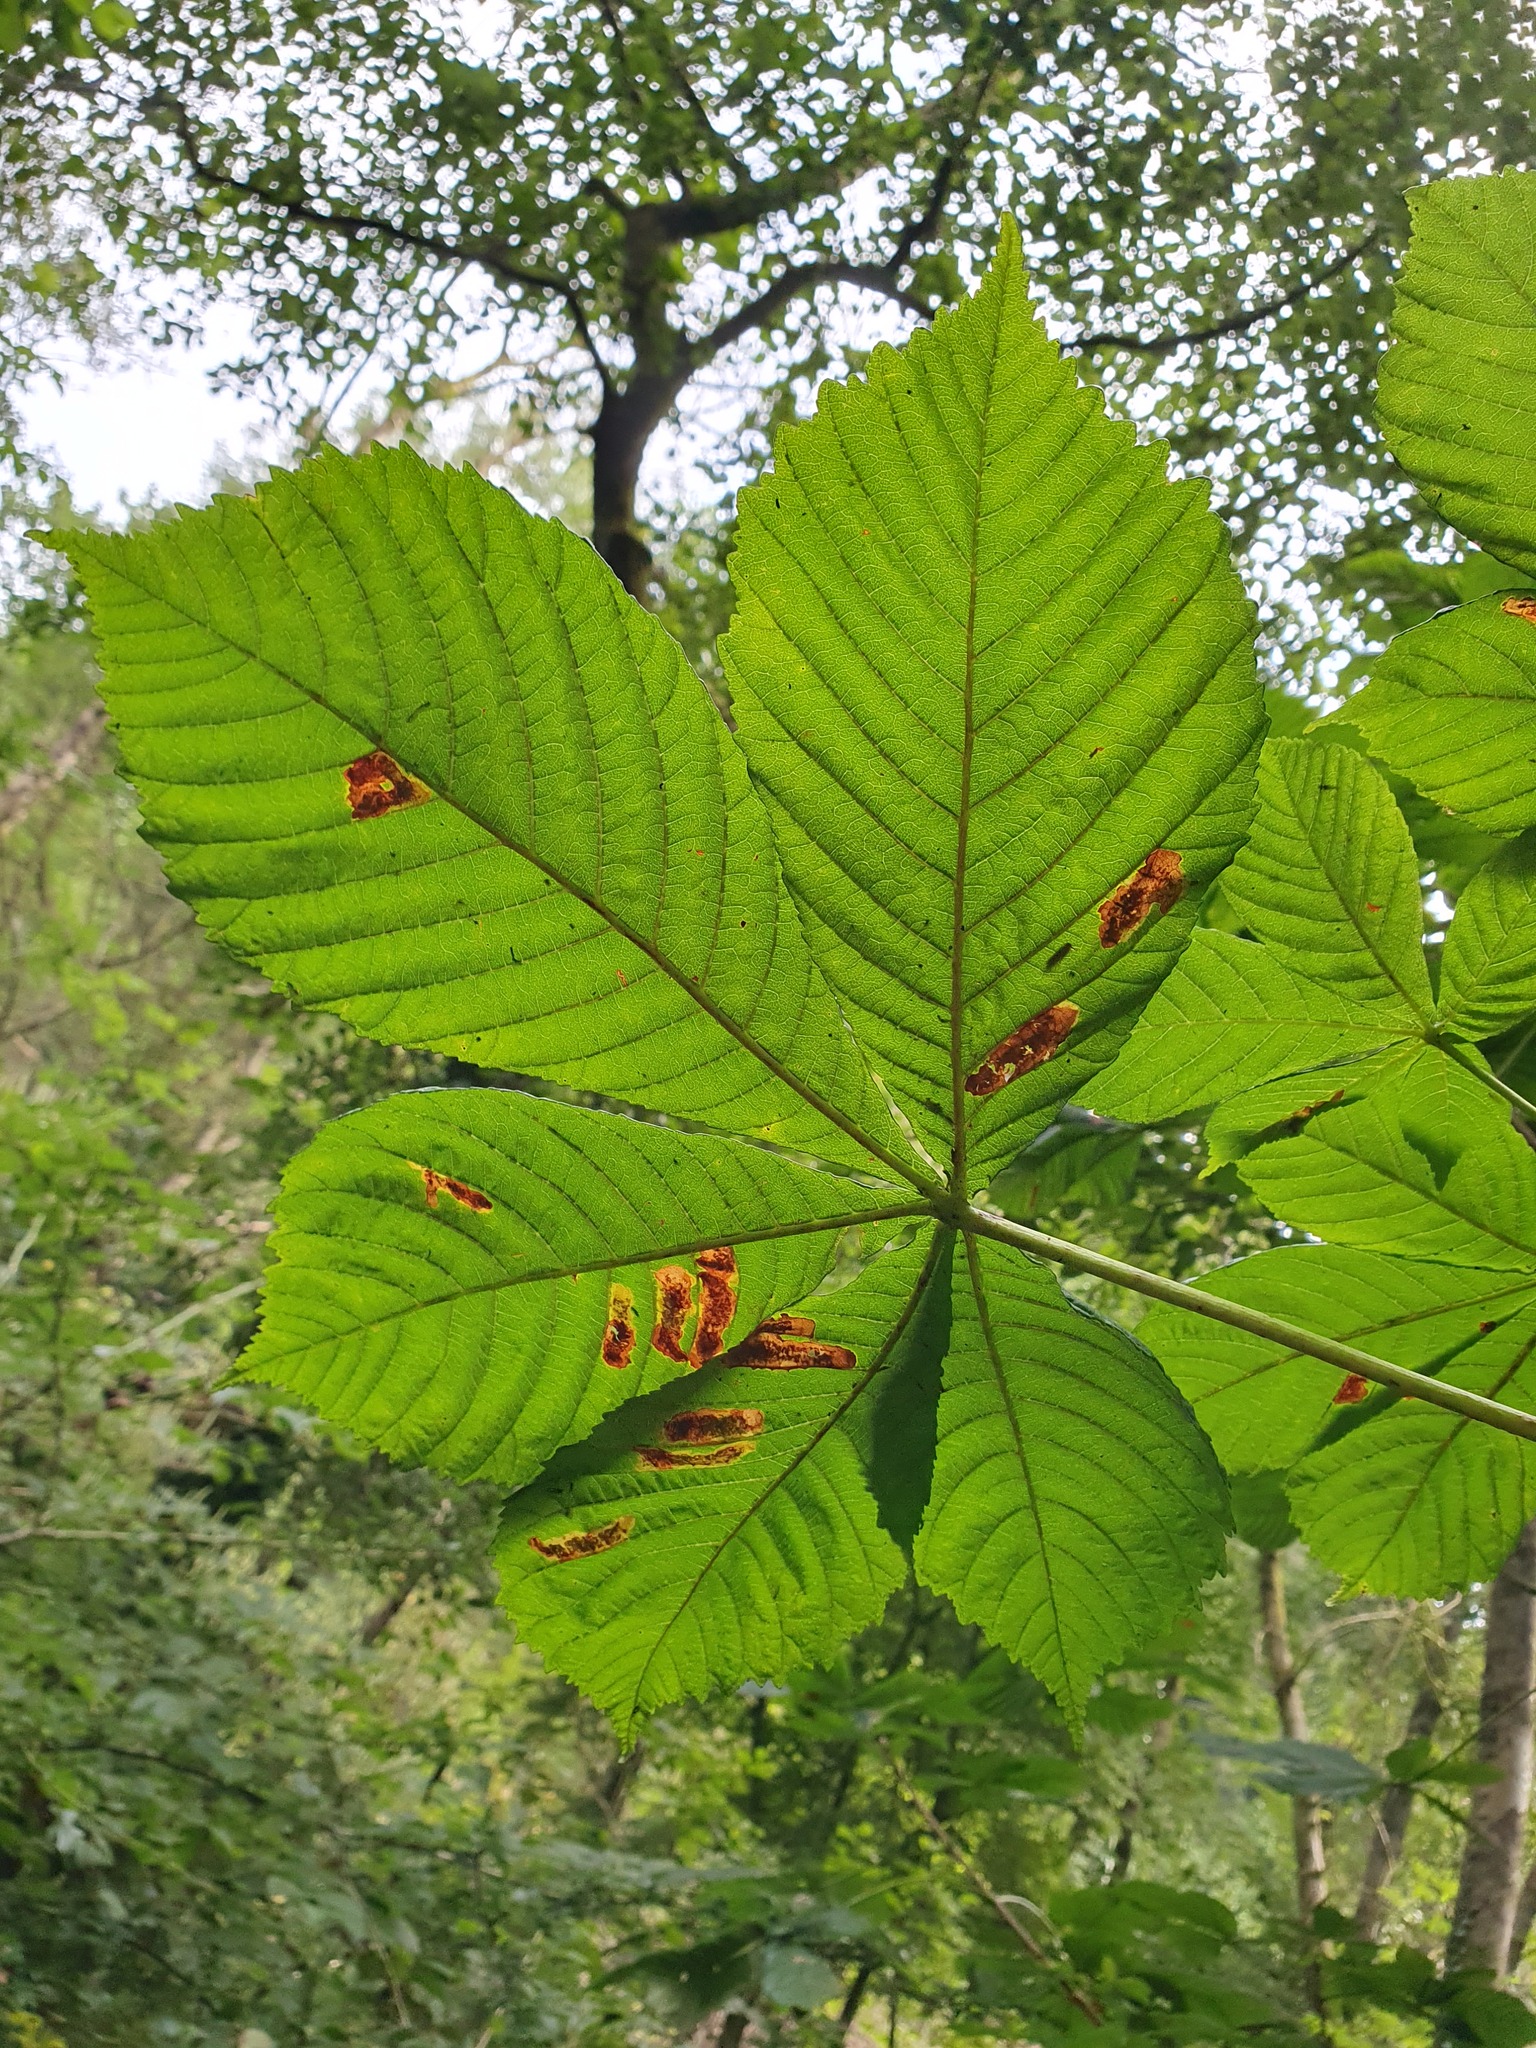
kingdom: Plantae
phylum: Tracheophyta
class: Magnoliopsida
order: Sapindales
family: Sapindaceae
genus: Aesculus
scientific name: Aesculus hippocastanum
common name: Horse-chestnut
